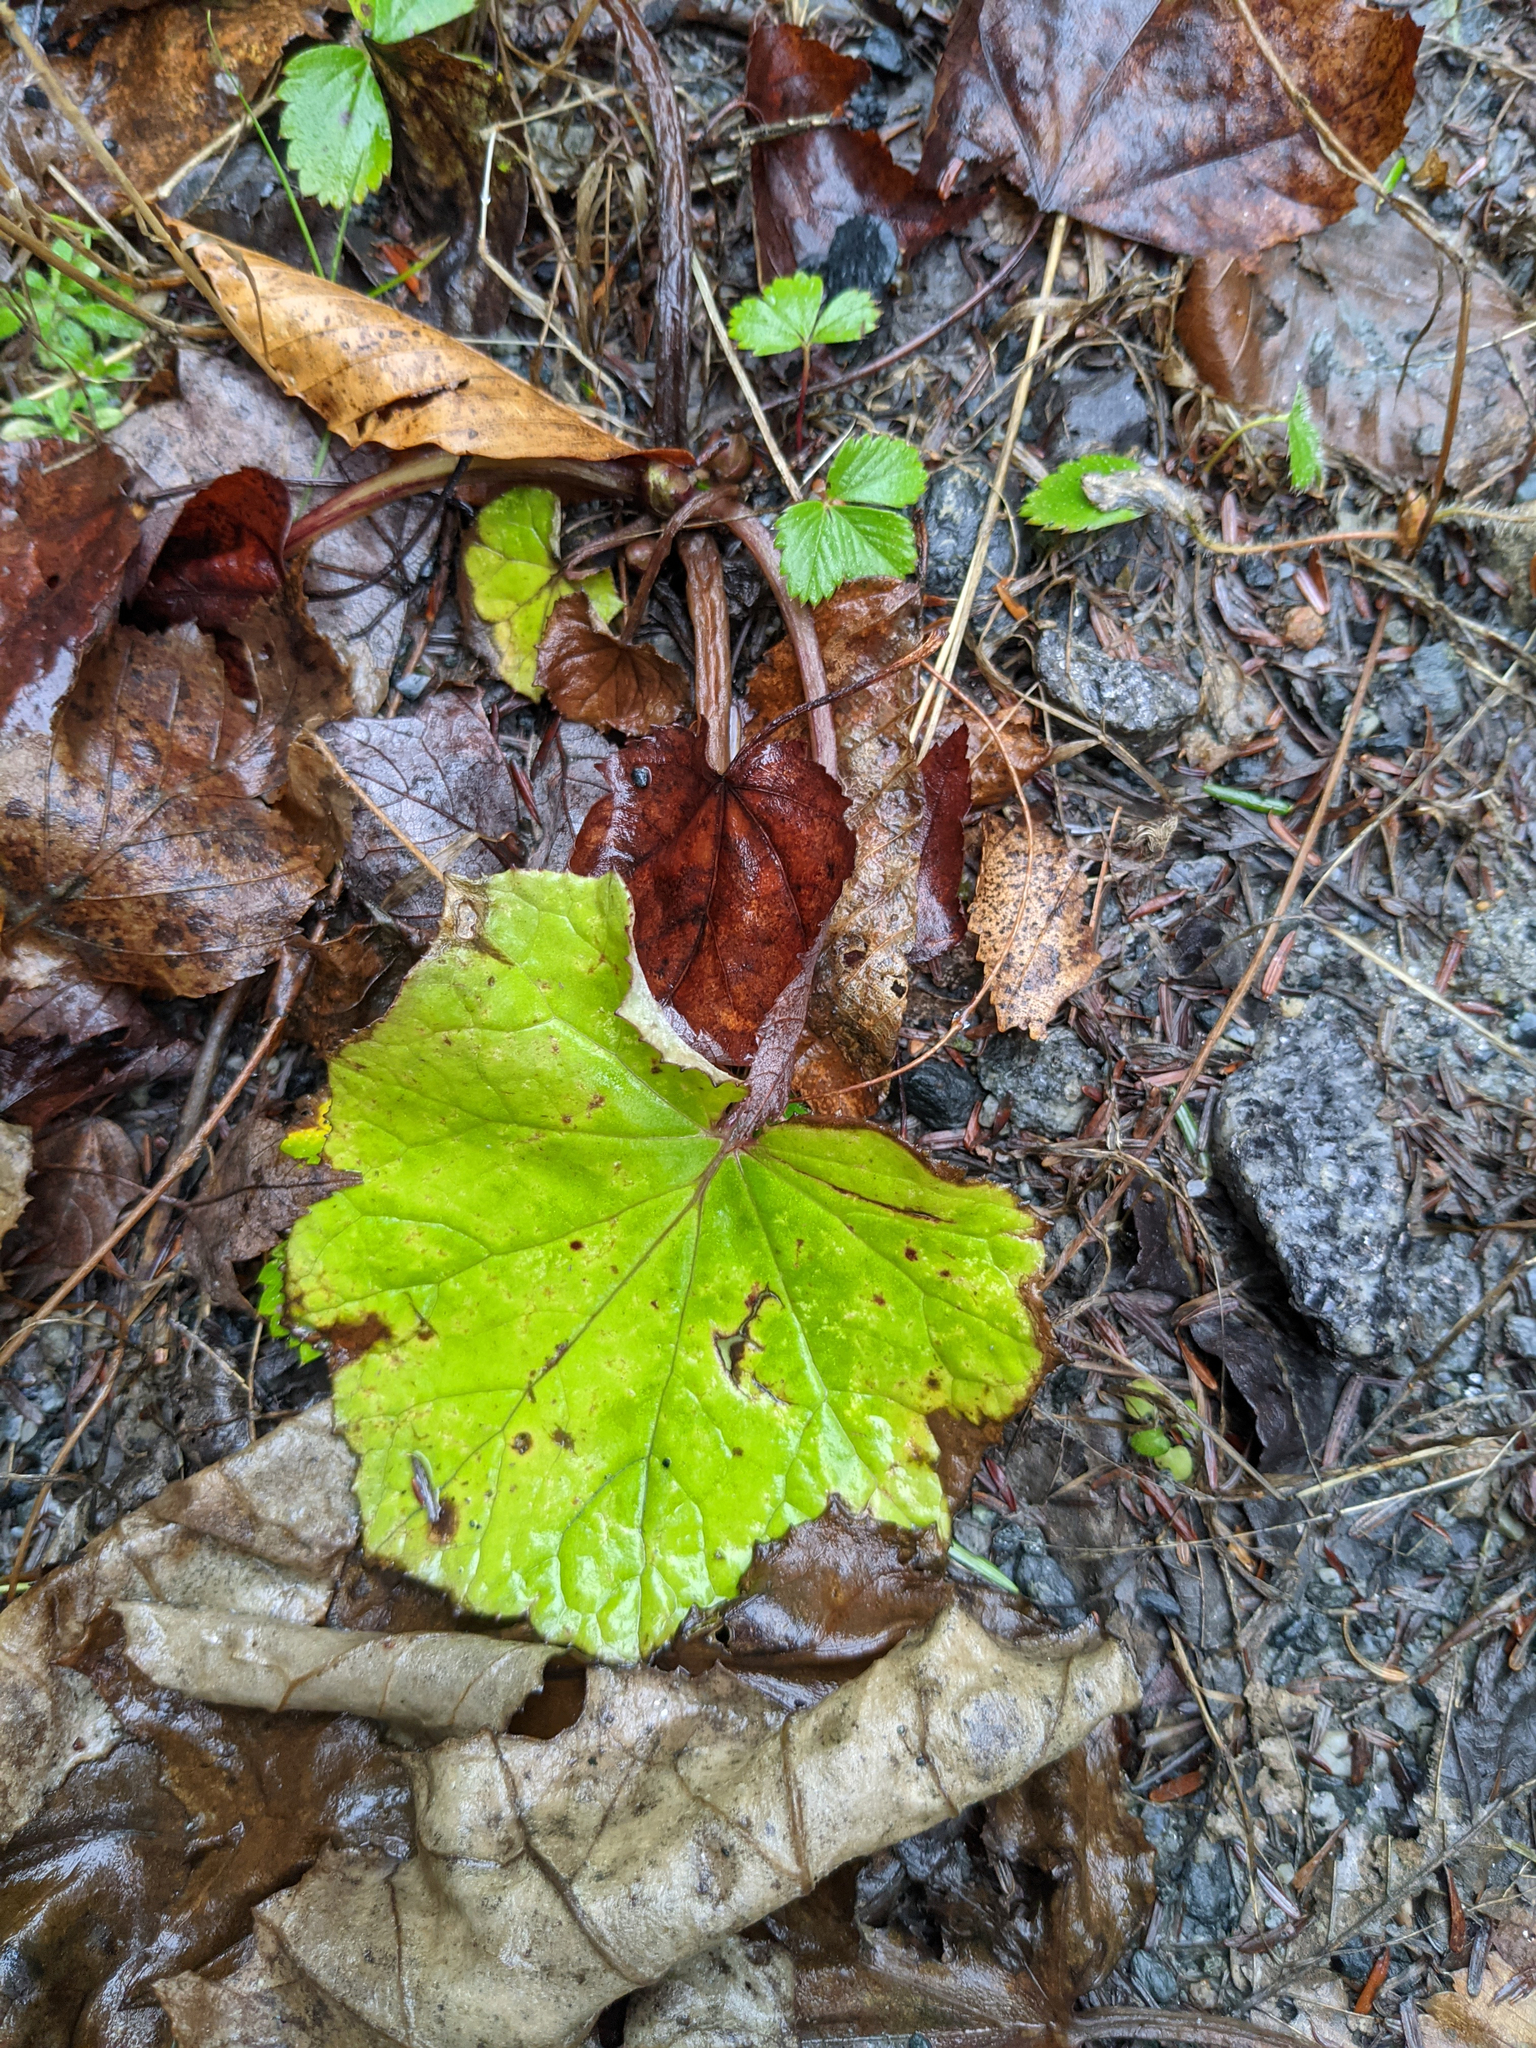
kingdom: Plantae
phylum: Tracheophyta
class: Magnoliopsida
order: Asterales
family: Asteraceae
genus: Tussilago
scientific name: Tussilago farfara
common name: Coltsfoot
